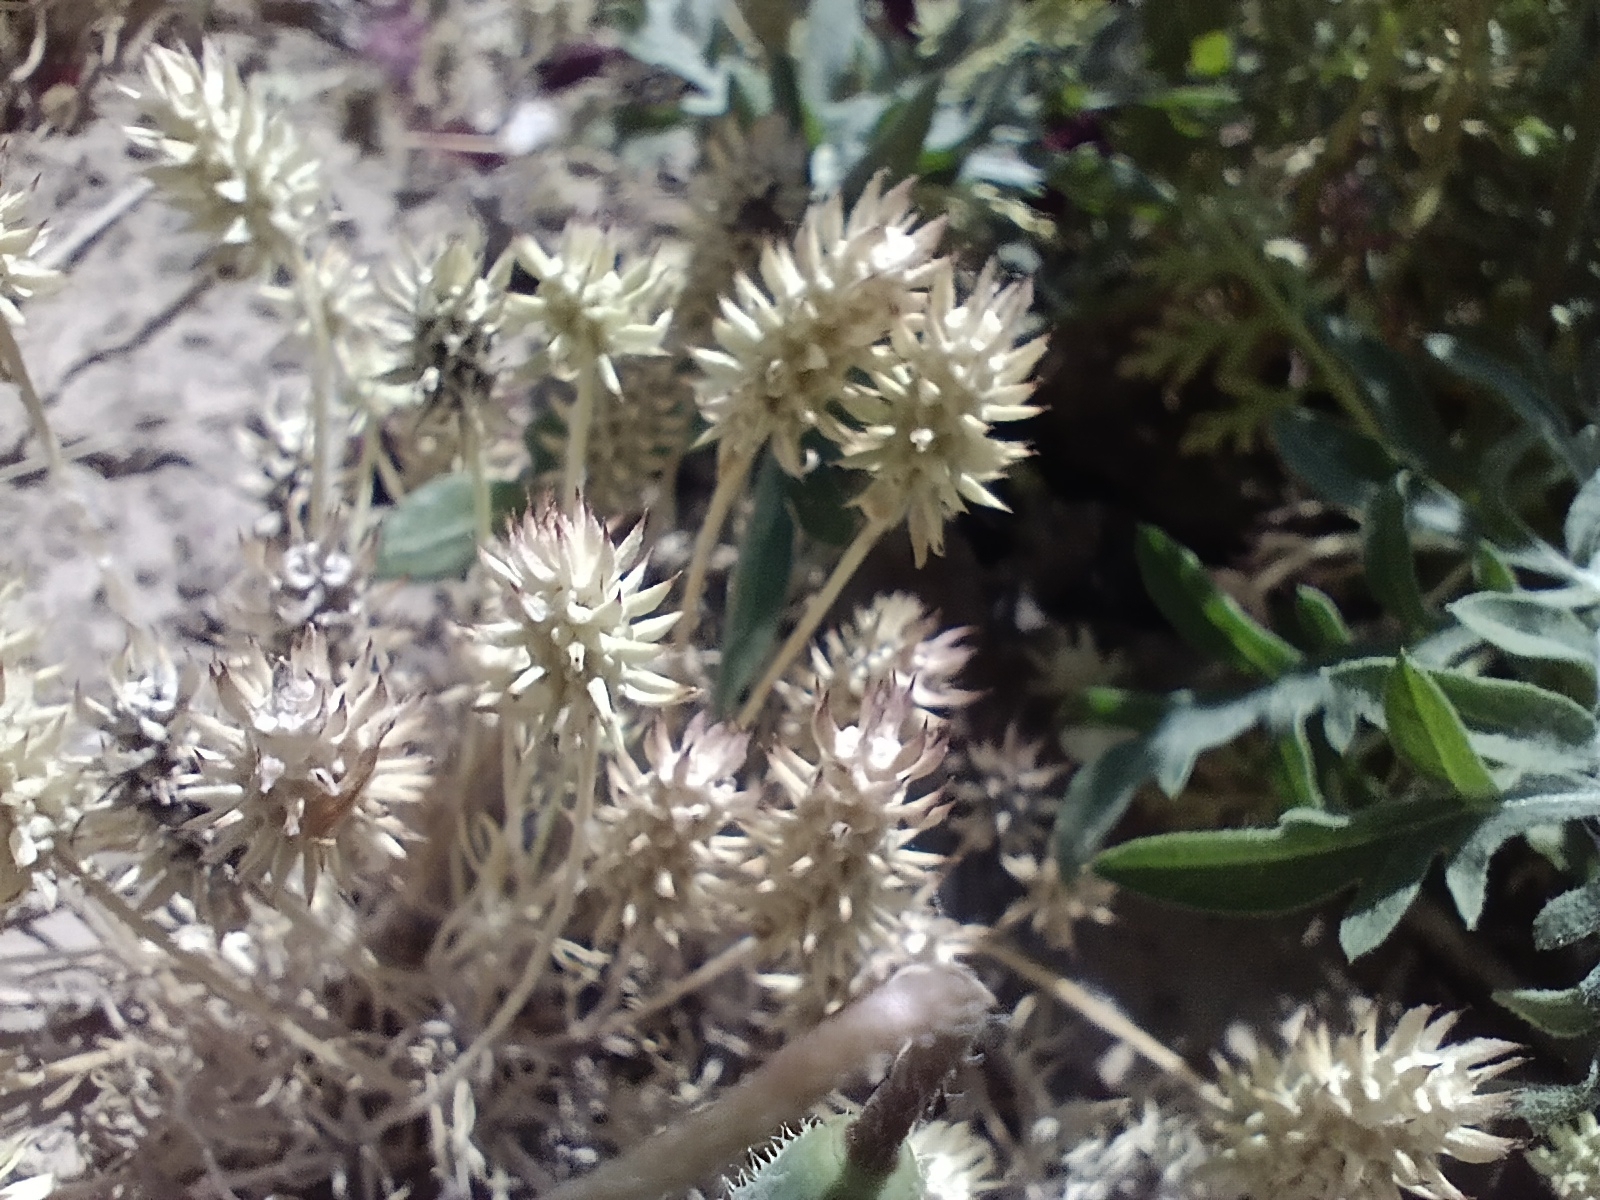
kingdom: Plantae
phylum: Tracheophyta
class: Magnoliopsida
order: Ranunculales
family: Ranunculaceae
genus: Ceratocephala
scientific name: Ceratocephala orthoceras
